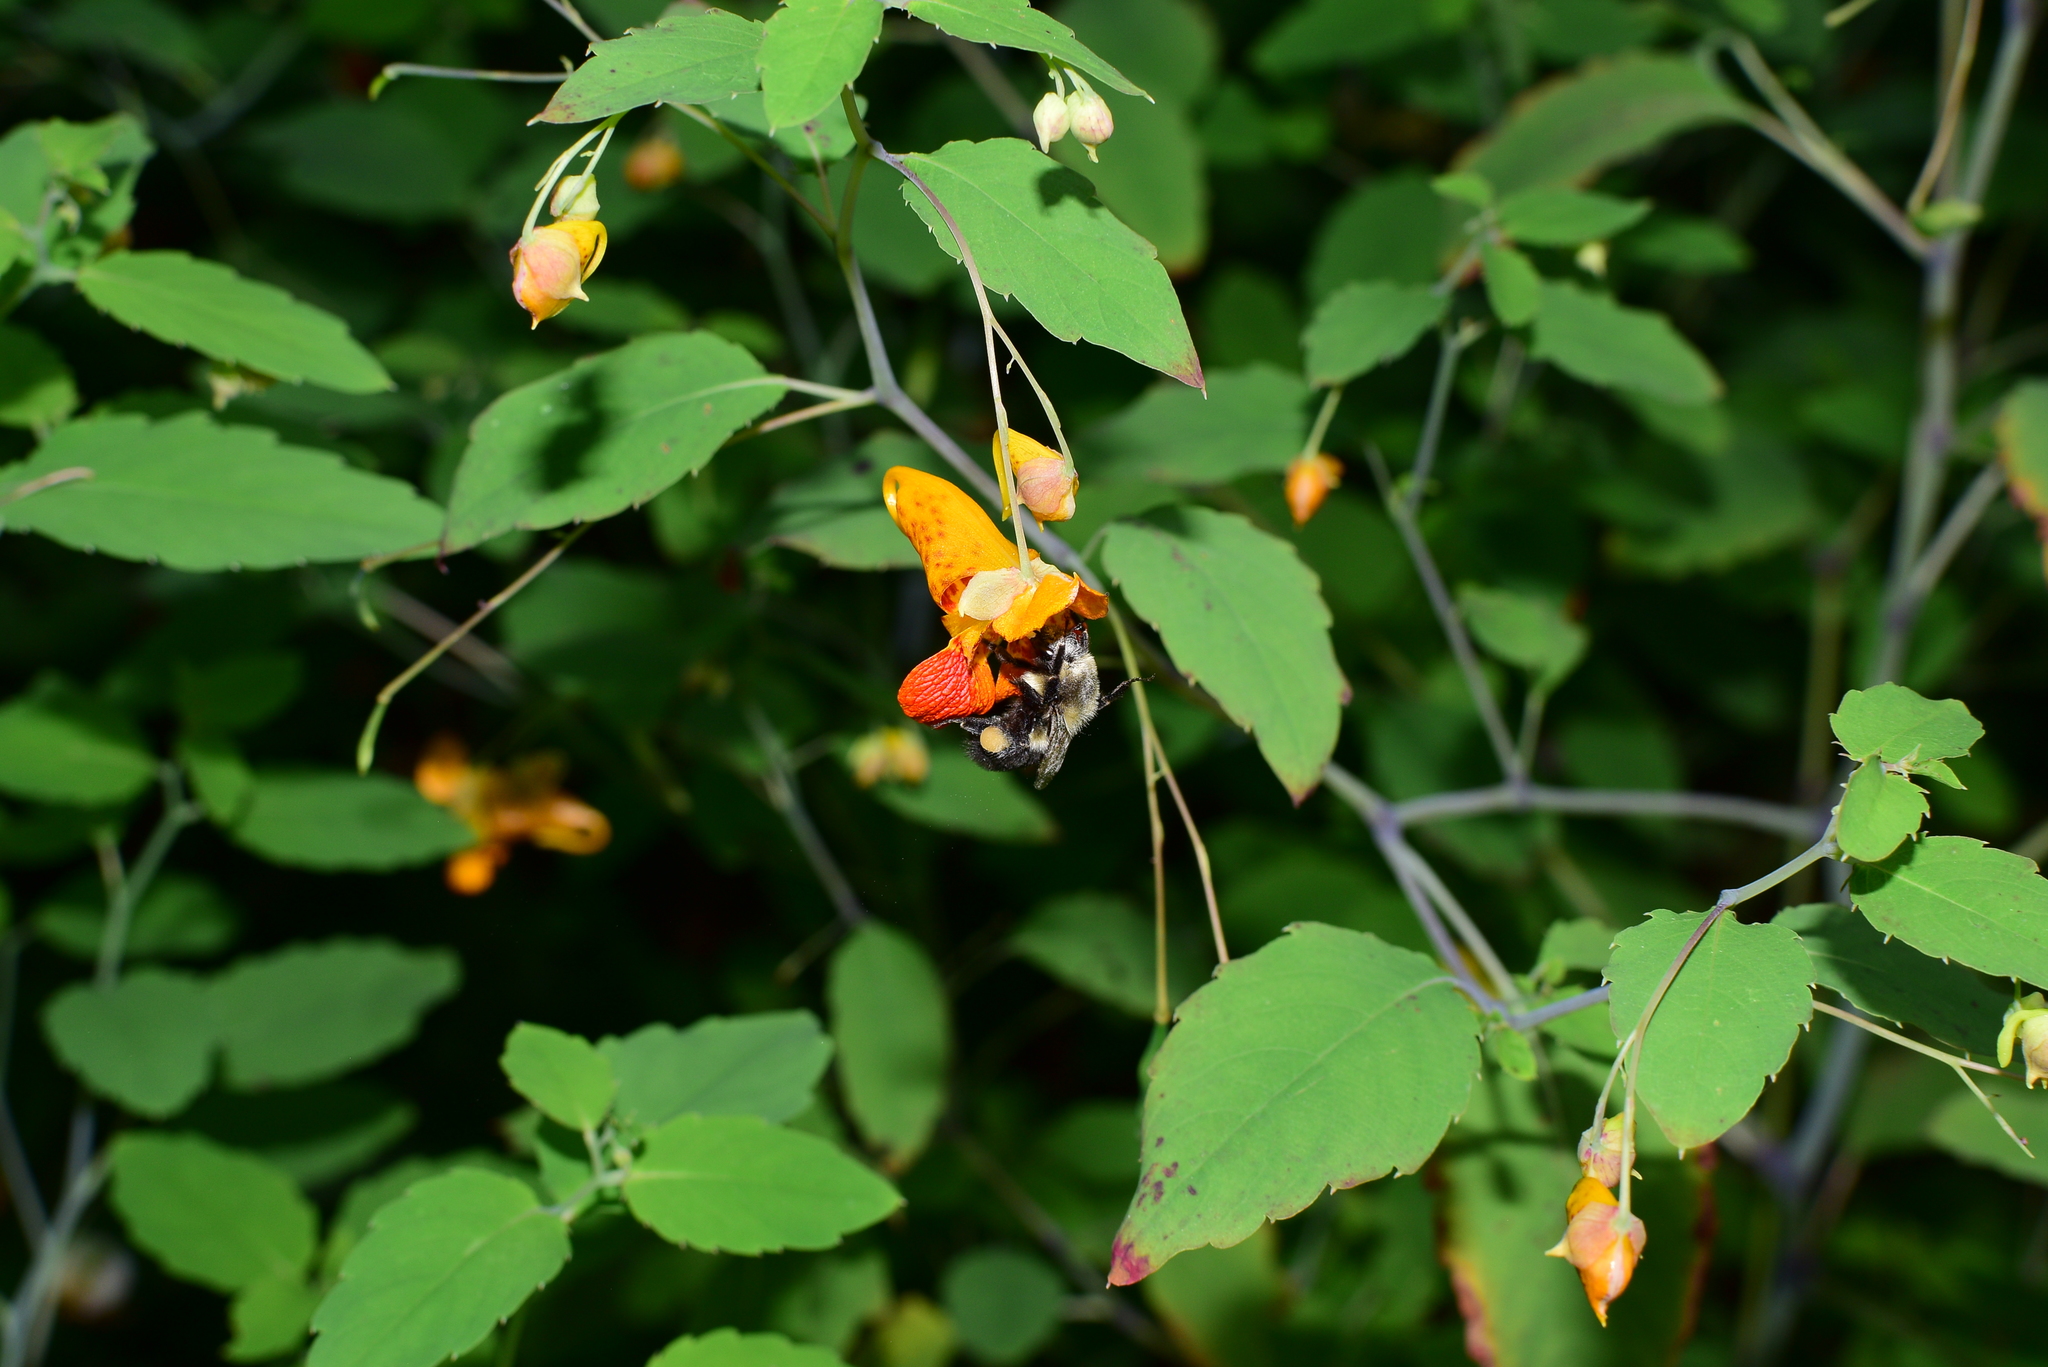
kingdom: Animalia
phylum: Arthropoda
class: Insecta
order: Hymenoptera
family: Apidae
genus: Bombus
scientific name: Bombus impatiens
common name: Common eastern bumble bee
